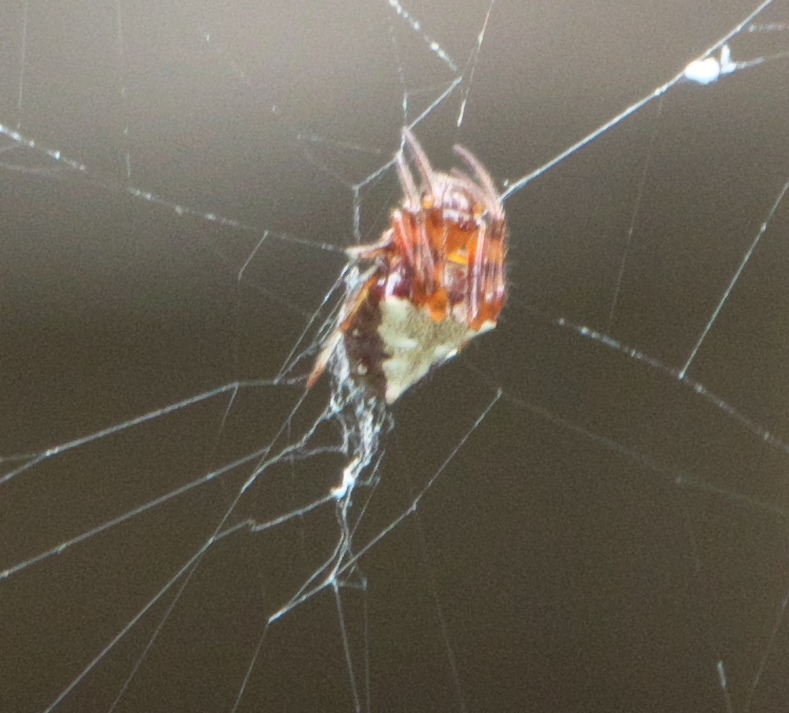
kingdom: Animalia
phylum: Arthropoda
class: Arachnida
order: Araneae
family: Araneidae
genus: Verrucosa
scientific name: Verrucosa arenata
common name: Orb weavers
